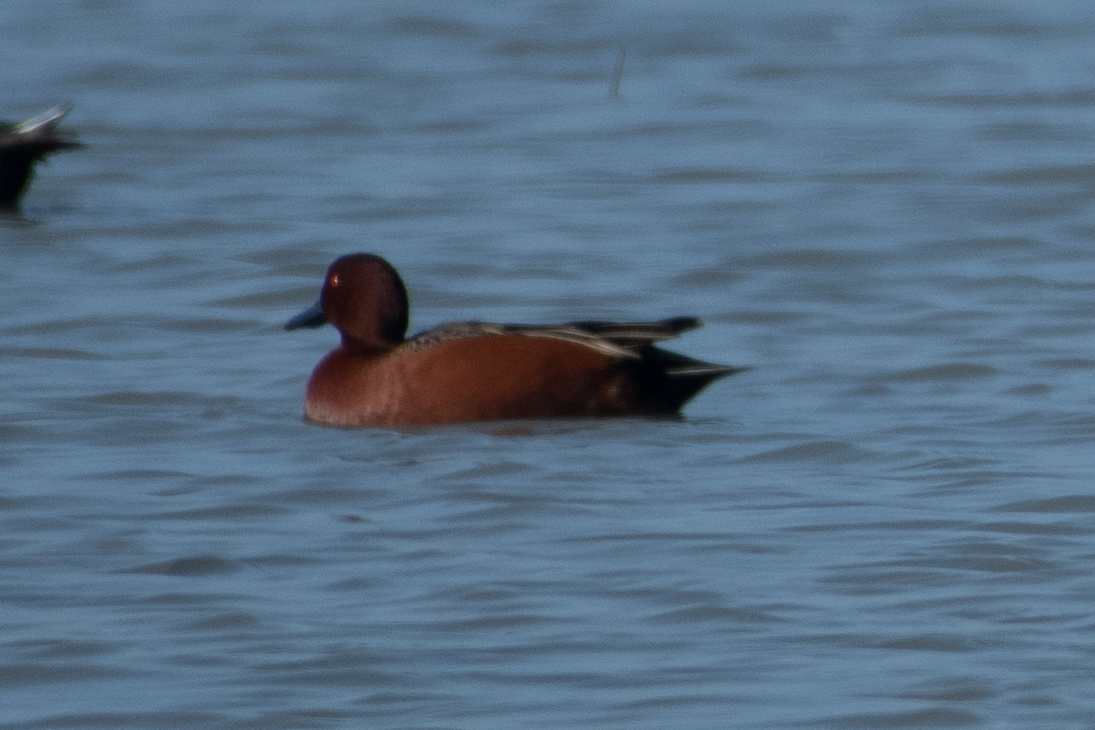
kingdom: Animalia
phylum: Chordata
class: Aves
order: Anseriformes
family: Anatidae
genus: Spatula
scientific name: Spatula cyanoptera
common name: Cinnamon teal
